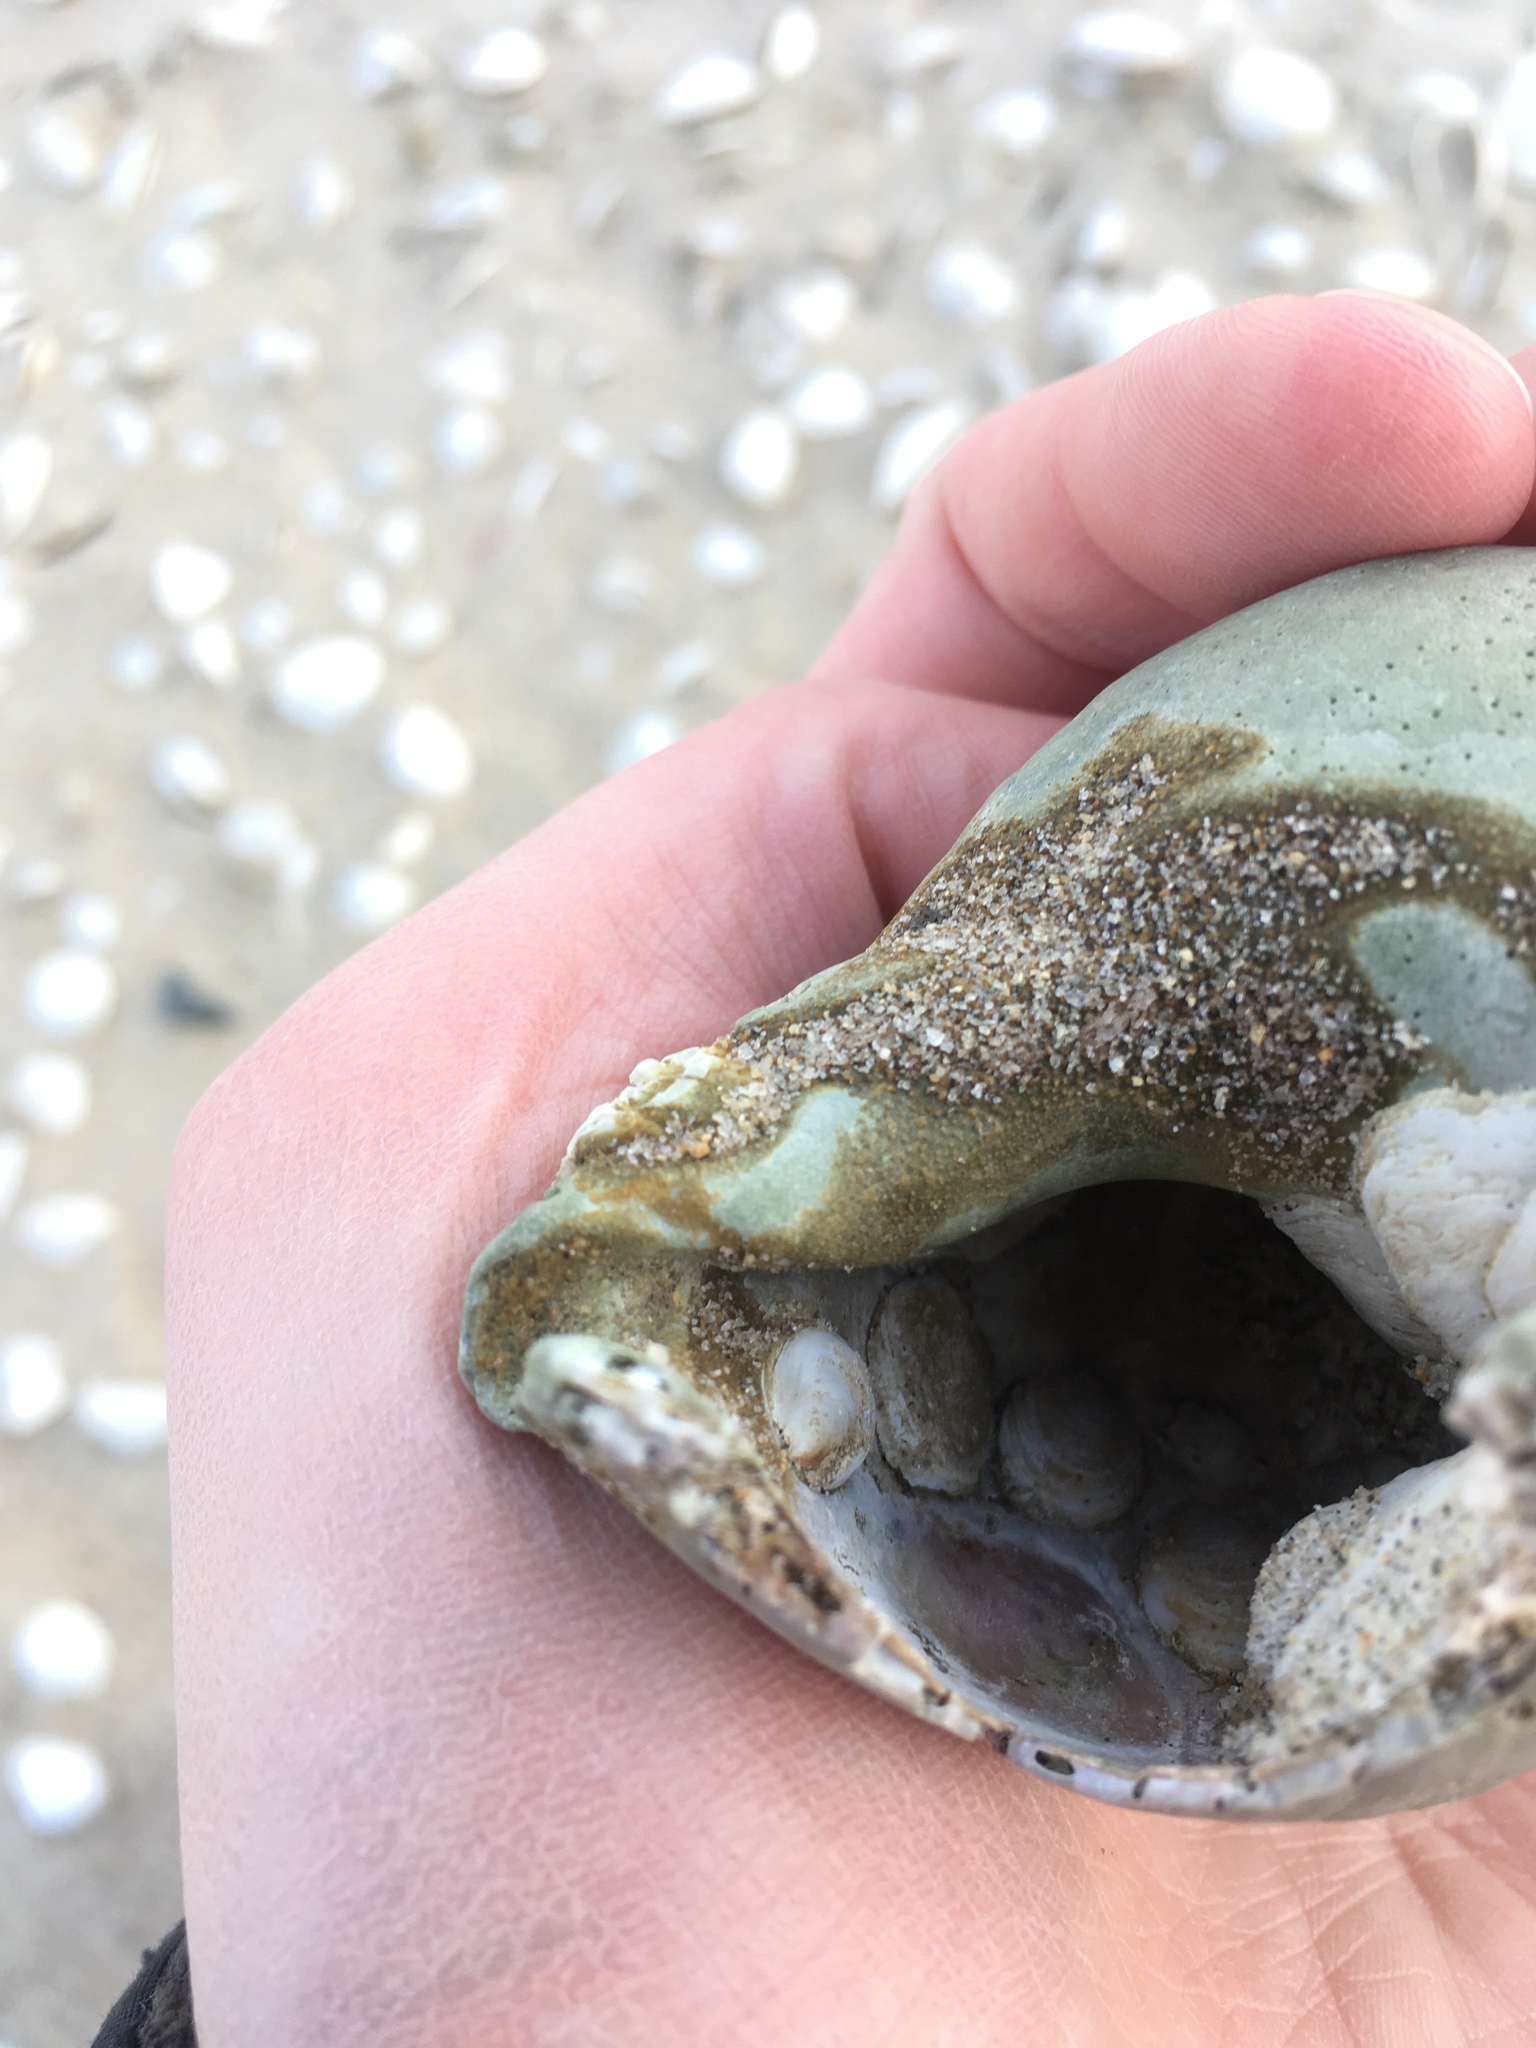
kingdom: Animalia
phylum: Mollusca
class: Gastropoda
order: Littorinimorpha
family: Calyptraeidae
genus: Crepidula
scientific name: Crepidula plana
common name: Eastern white slippersnail
